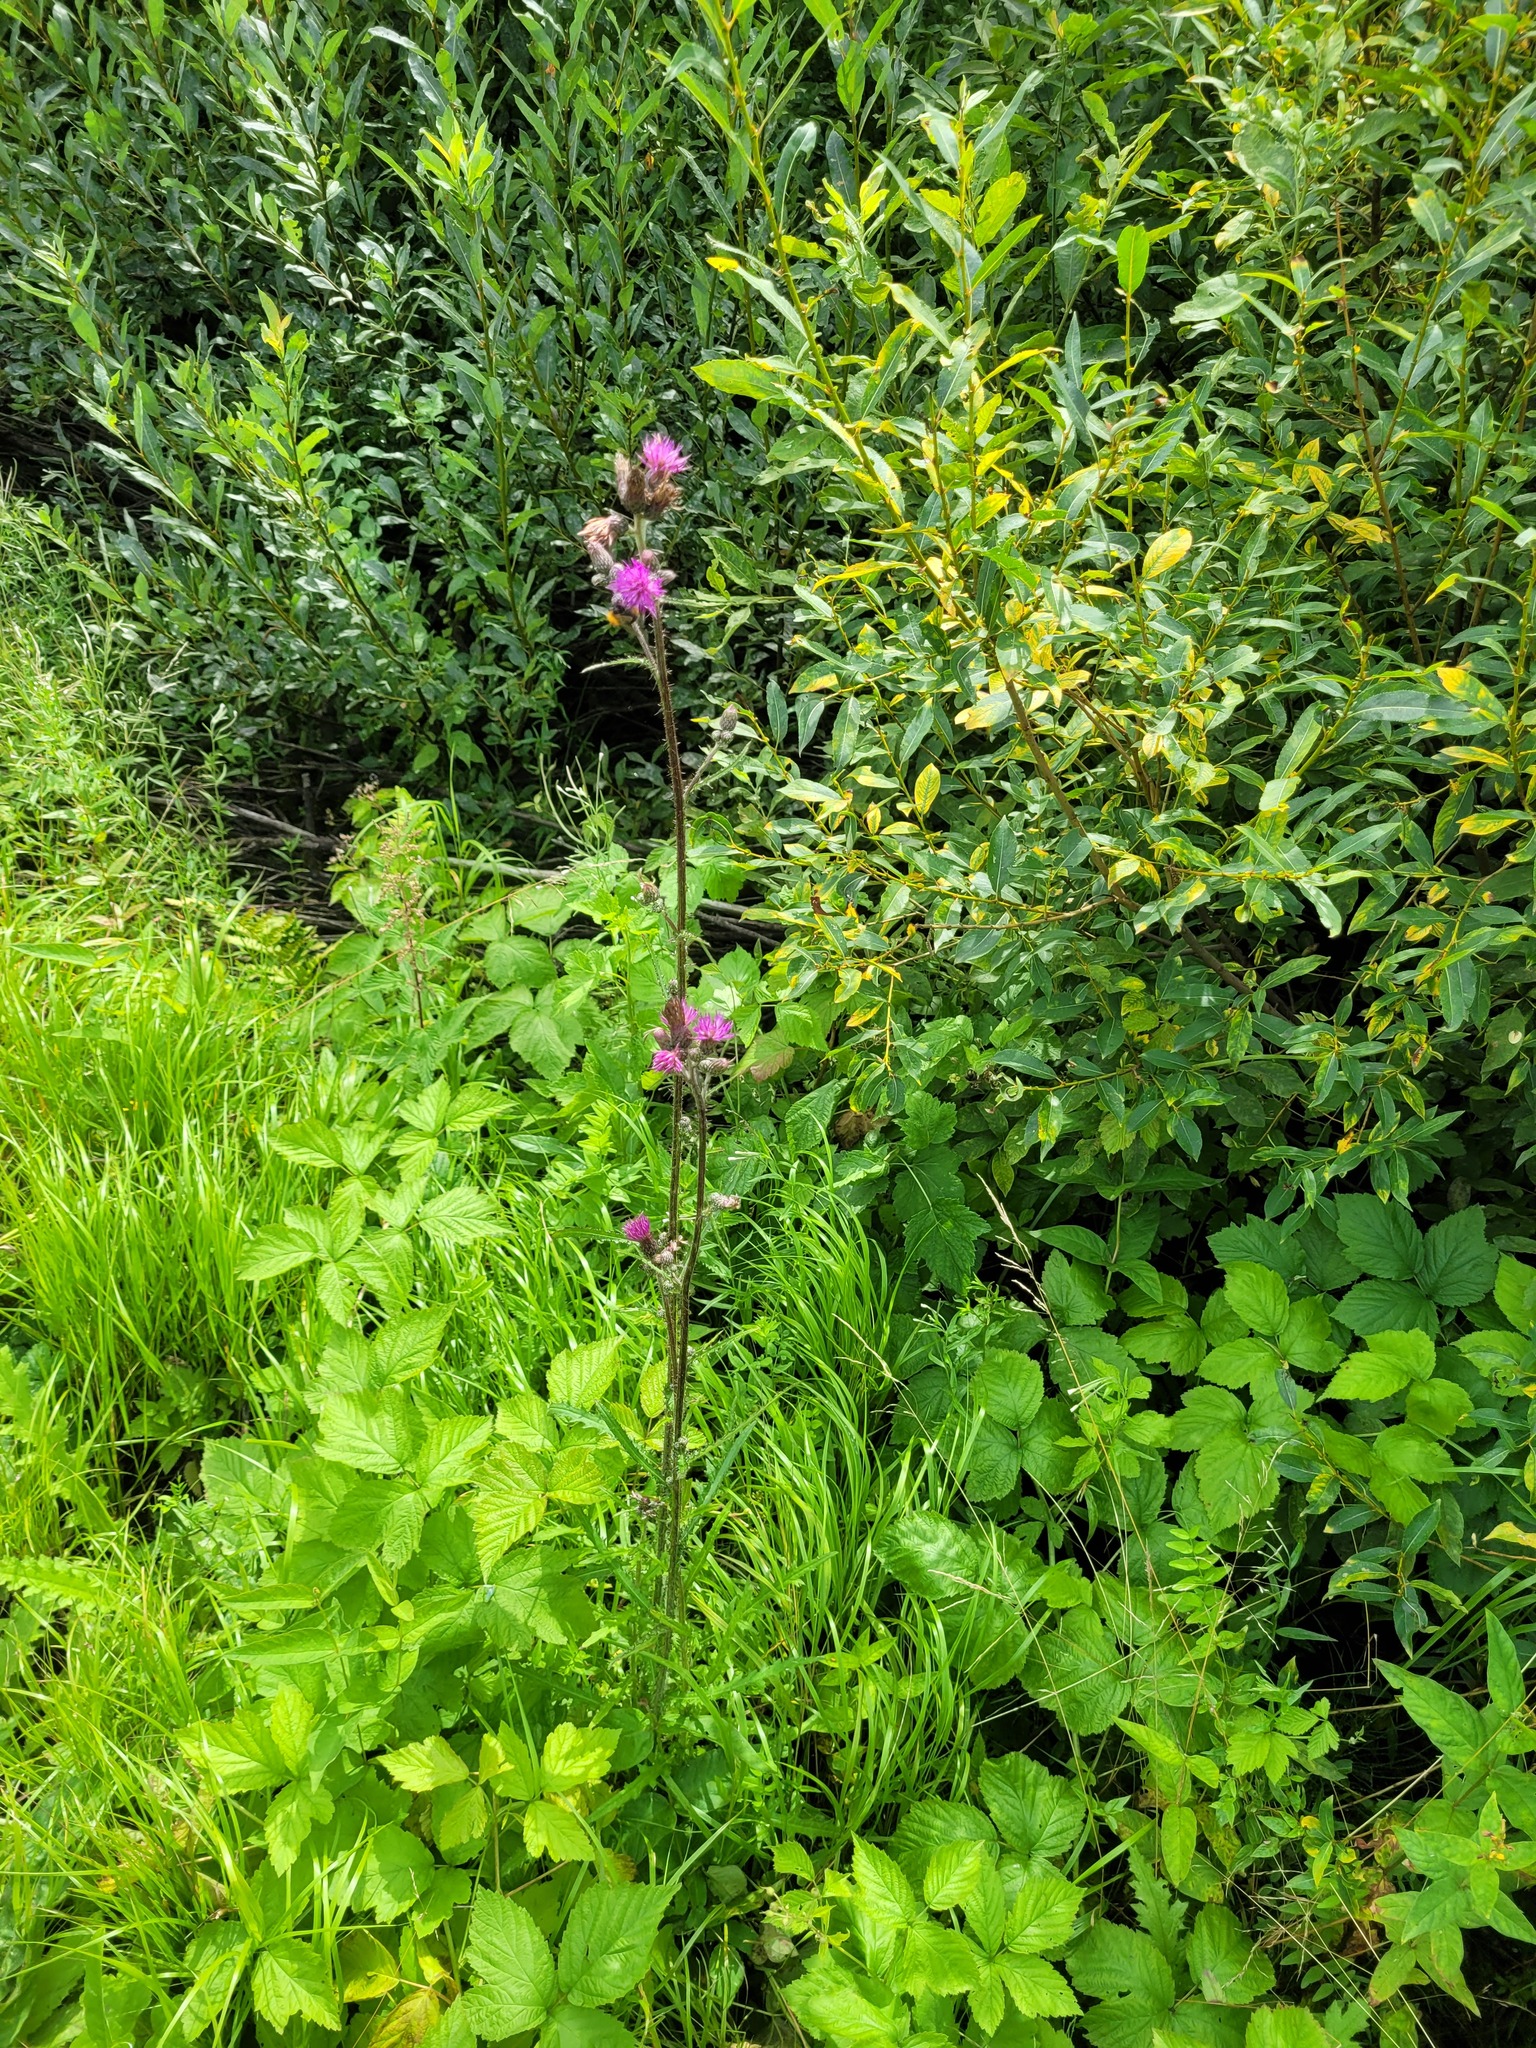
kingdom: Plantae
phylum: Tracheophyta
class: Magnoliopsida
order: Asterales
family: Asteraceae
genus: Cirsium
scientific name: Cirsium palustre
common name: Marsh thistle
